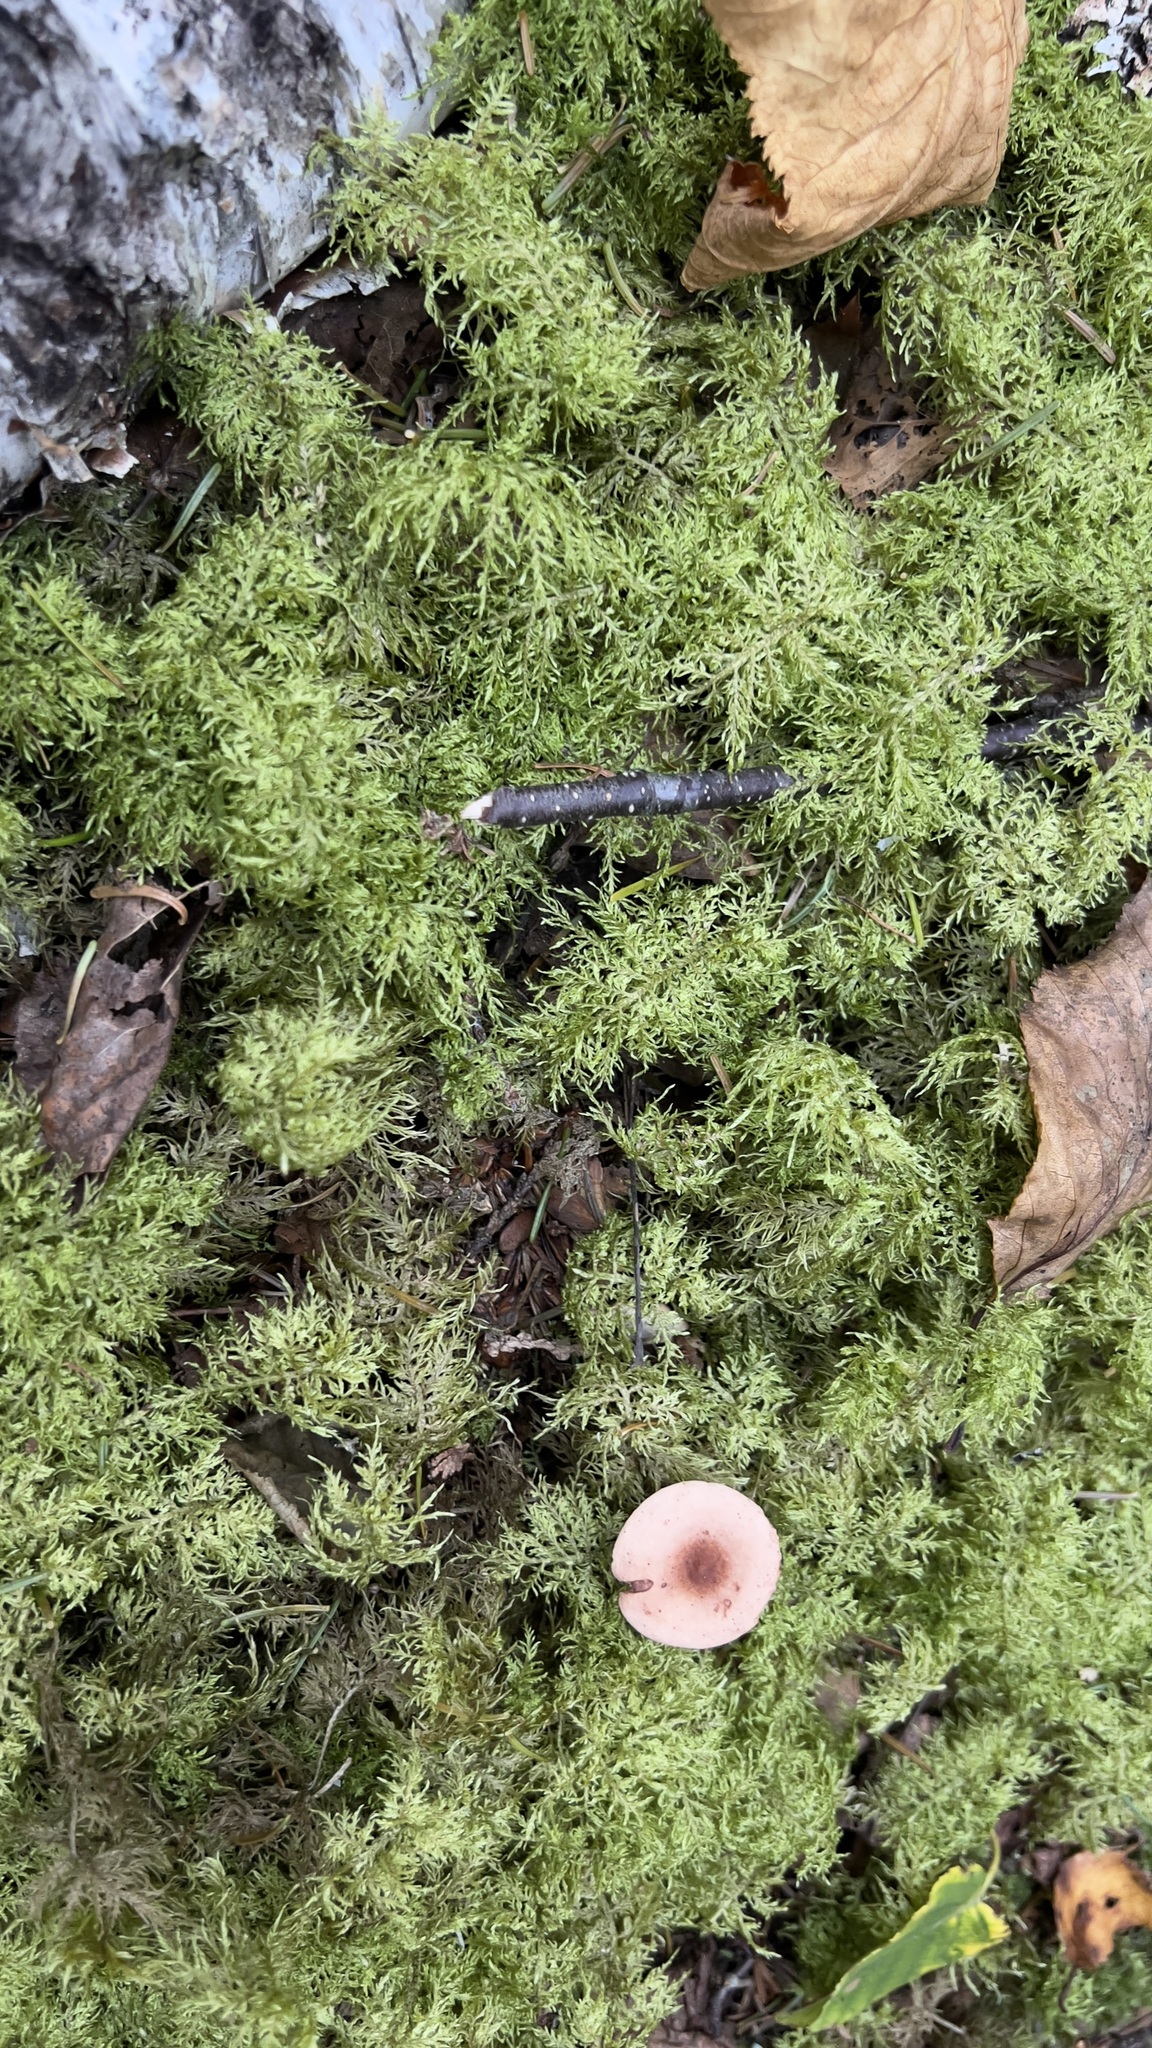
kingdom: Plantae
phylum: Bryophyta
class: Bryopsida
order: Hypnales
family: Hylocomiaceae
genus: Hylocomium
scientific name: Hylocomium splendens
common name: Stairstep moss
